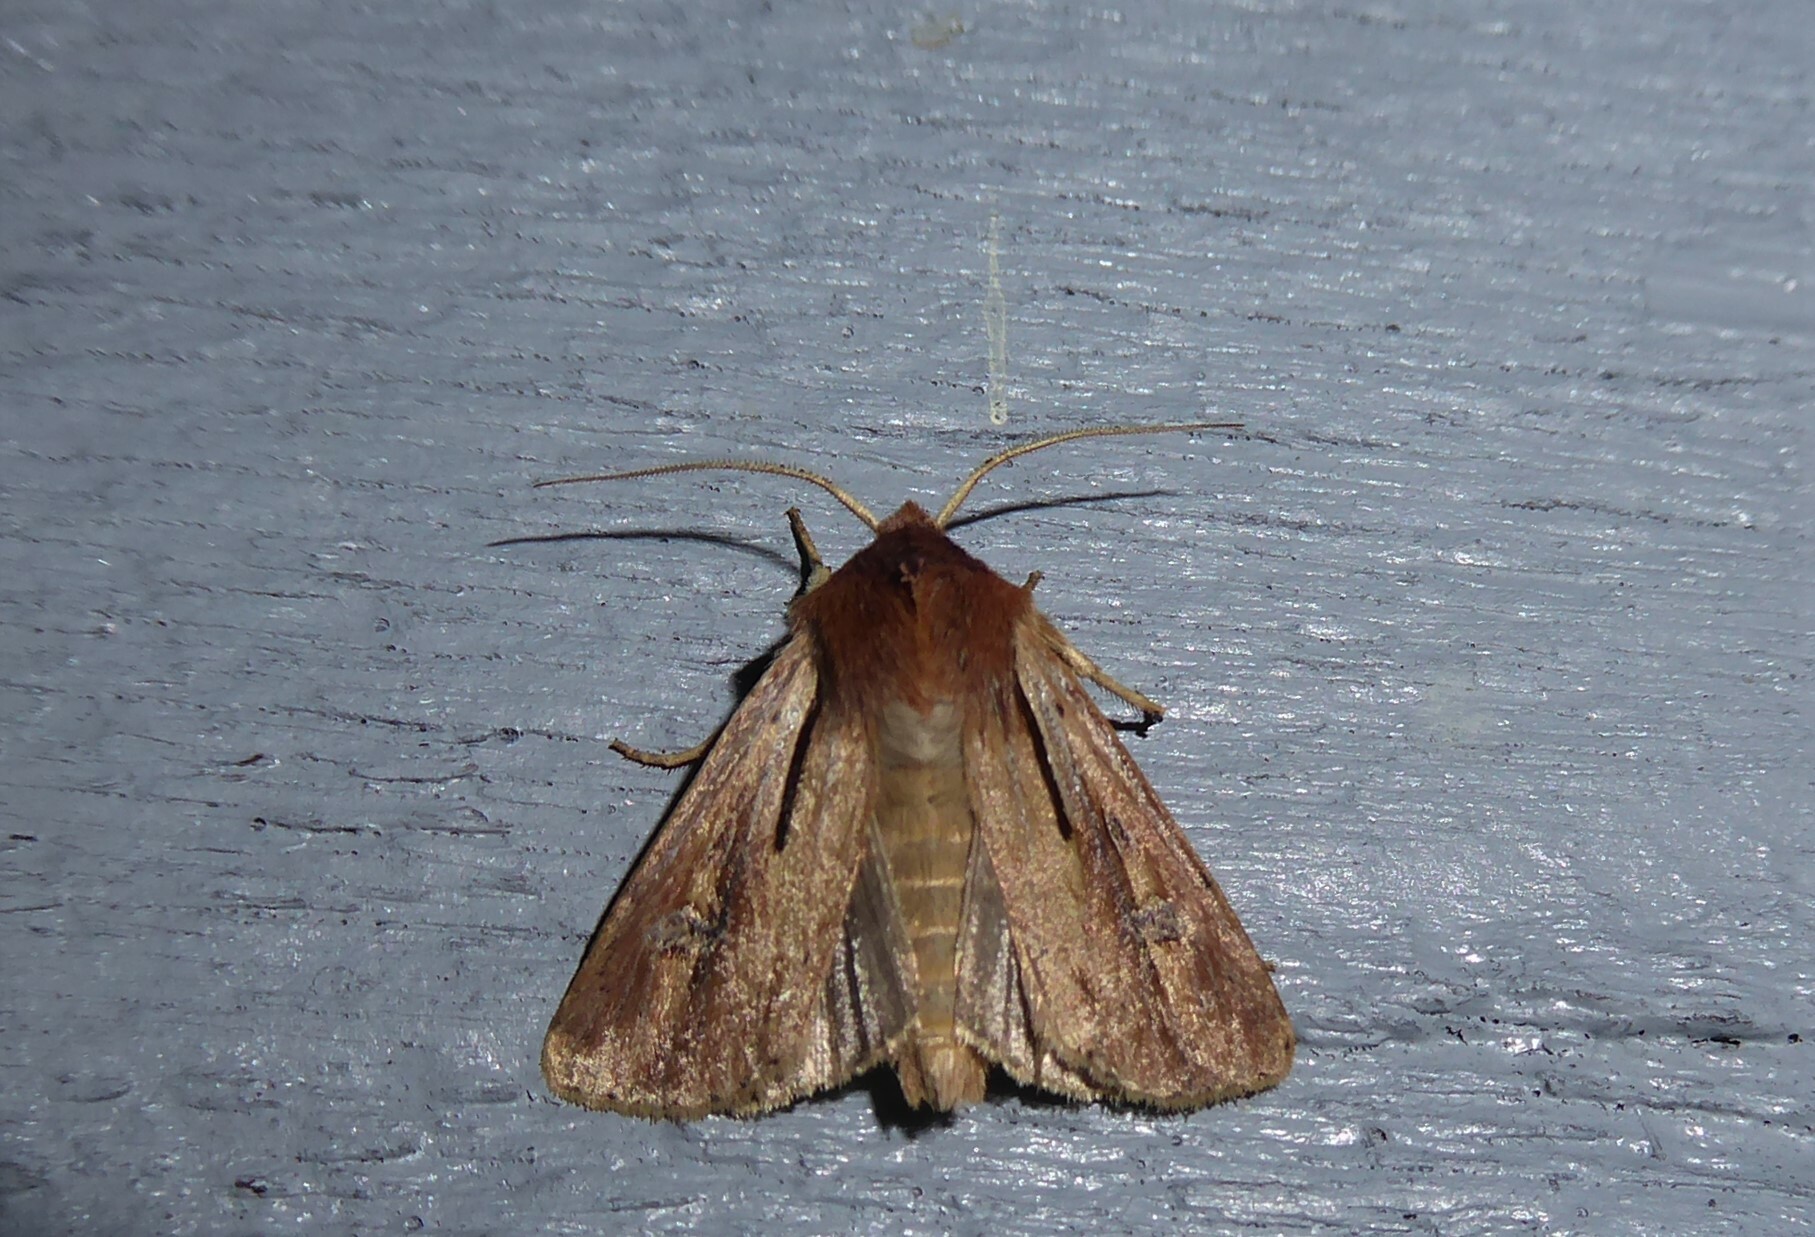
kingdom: Animalia
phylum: Arthropoda
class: Insecta
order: Lepidoptera
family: Noctuidae
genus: Ichneutica
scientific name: Ichneutica atristriga
